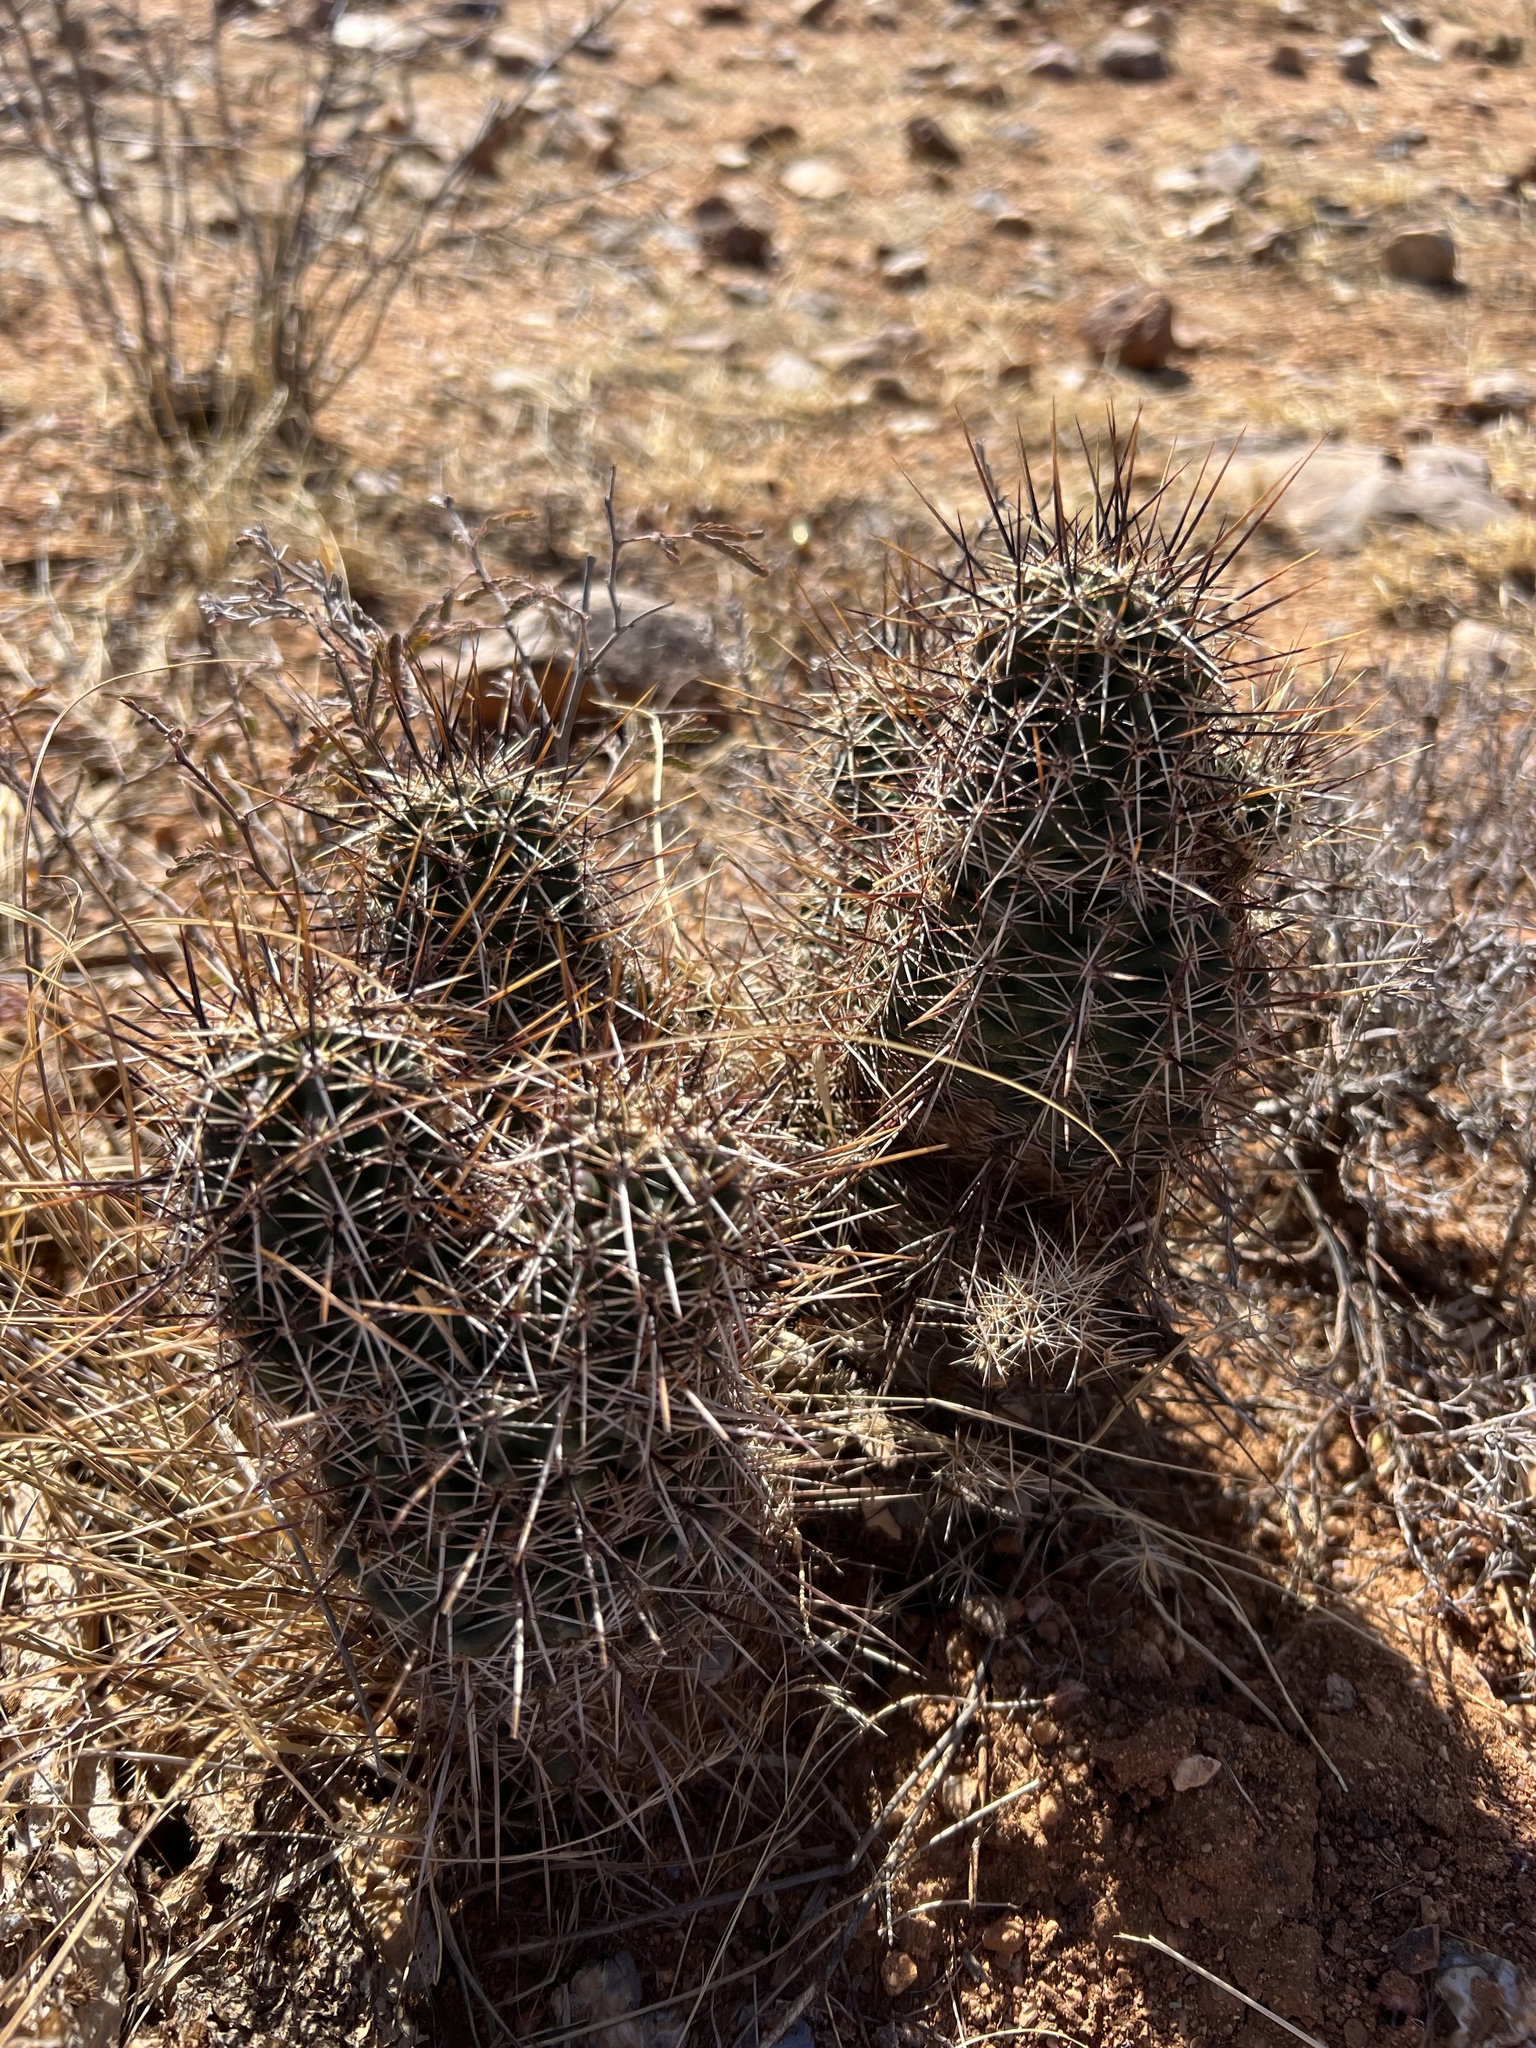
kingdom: Plantae
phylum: Tracheophyta
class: Magnoliopsida
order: Caryophyllales
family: Cactaceae
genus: Echinocereus
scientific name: Echinocereus fasciculatus
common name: Bundle hedgehog
